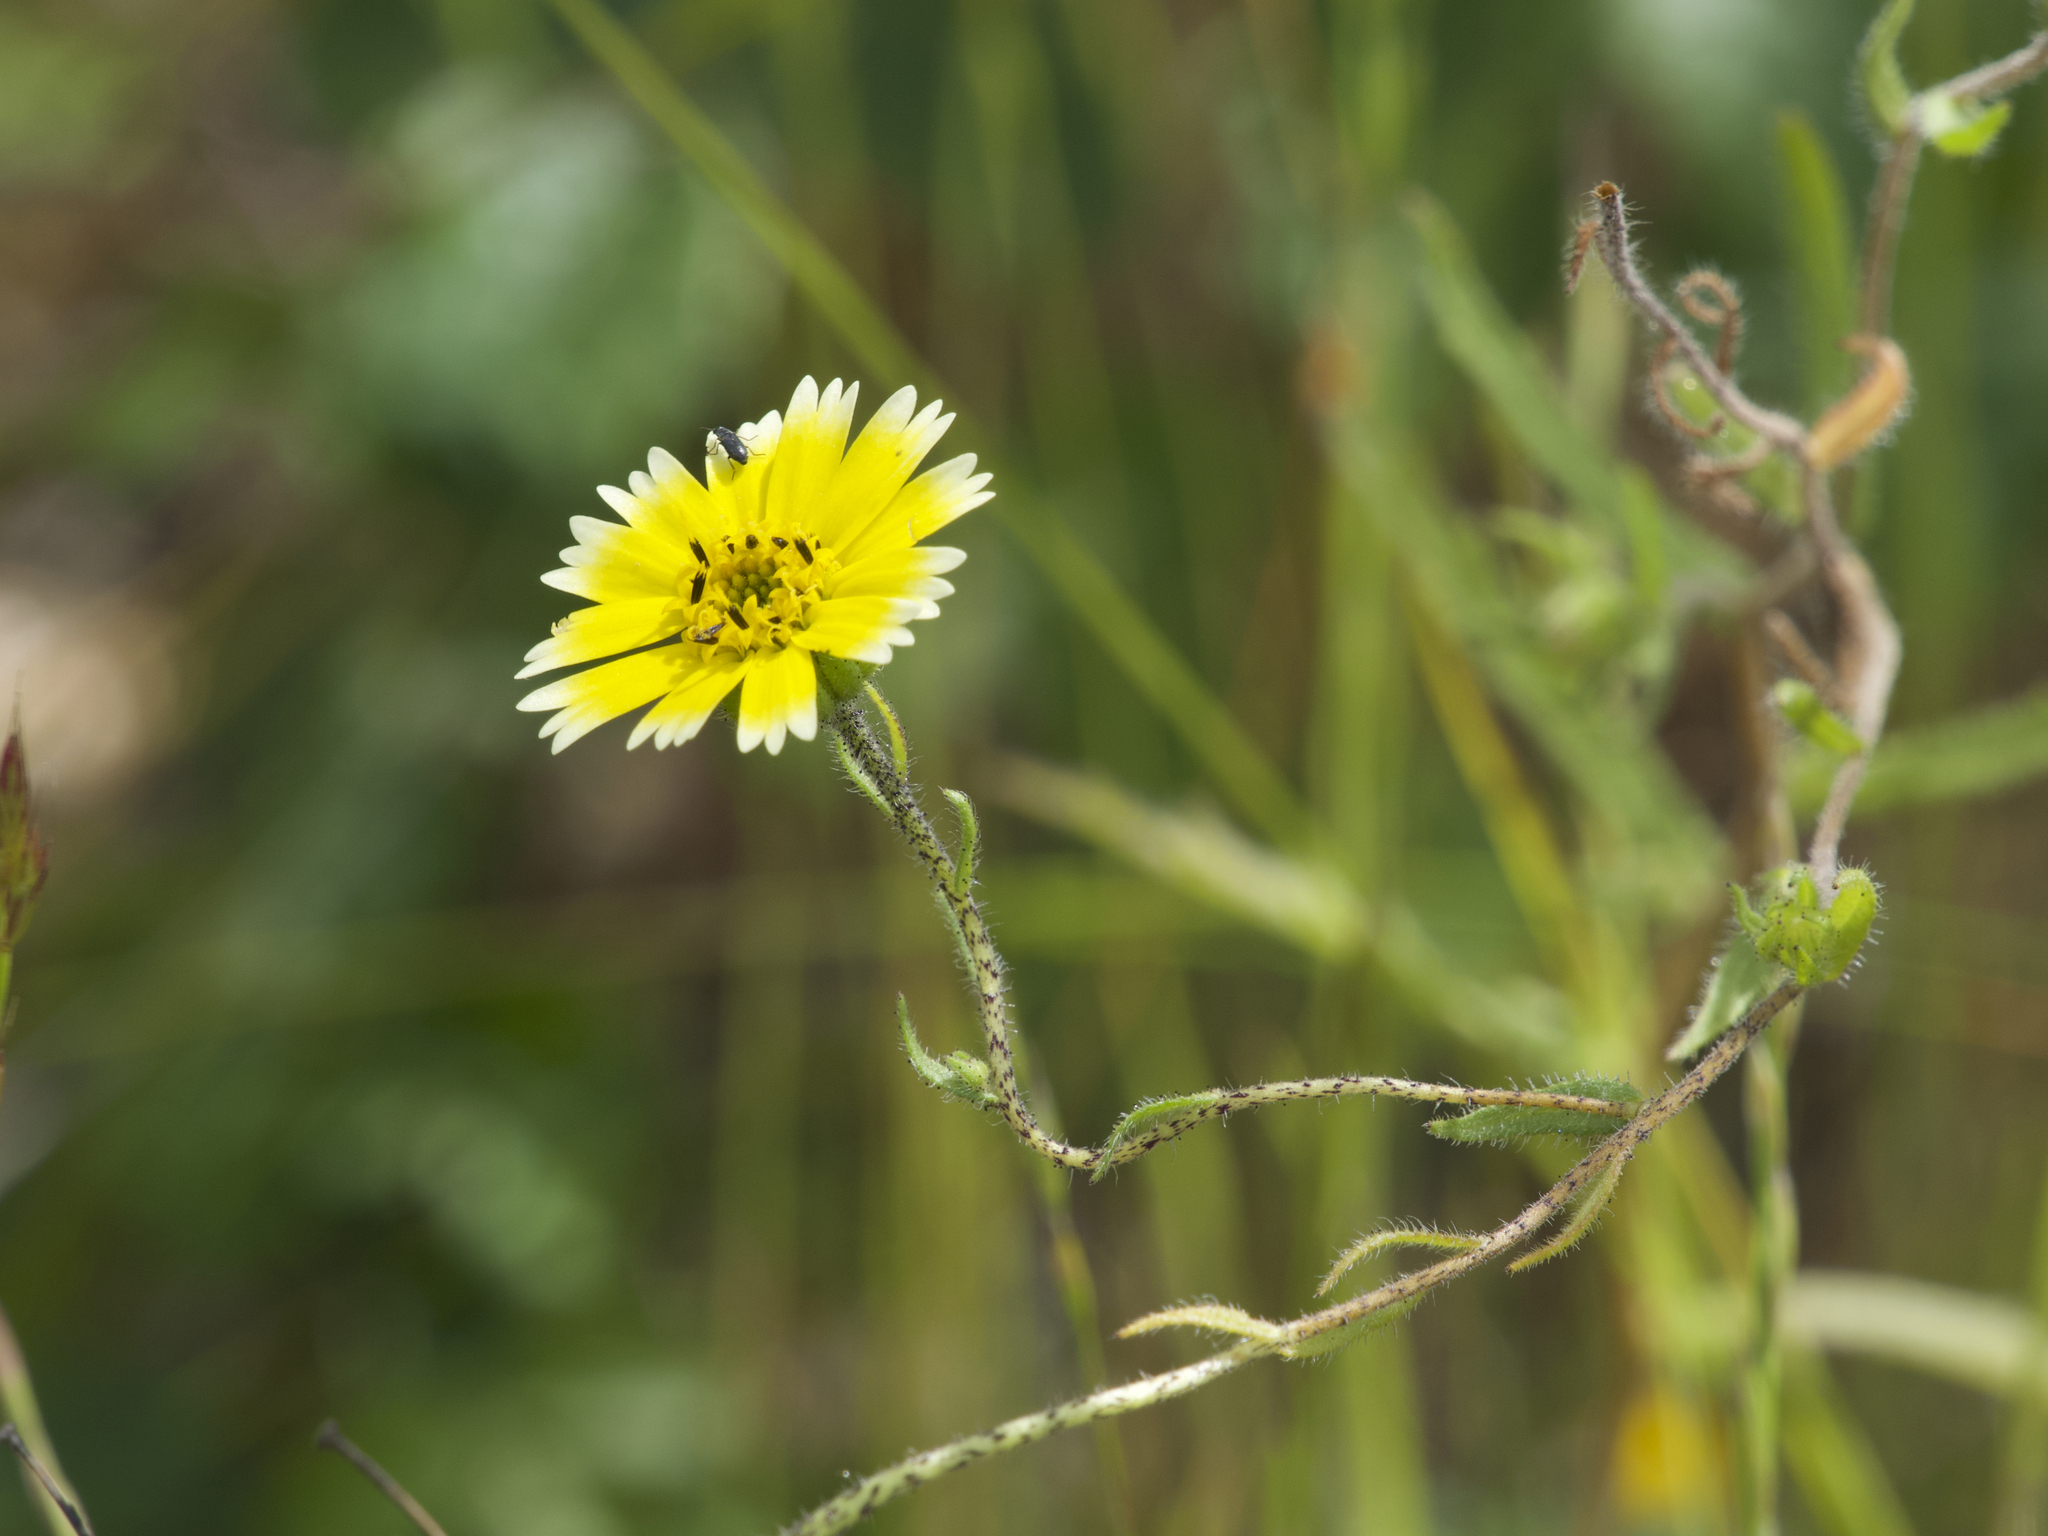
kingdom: Plantae
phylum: Tracheophyta
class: Magnoliopsida
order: Asterales
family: Asteraceae
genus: Layia
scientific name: Layia gaillardioides
